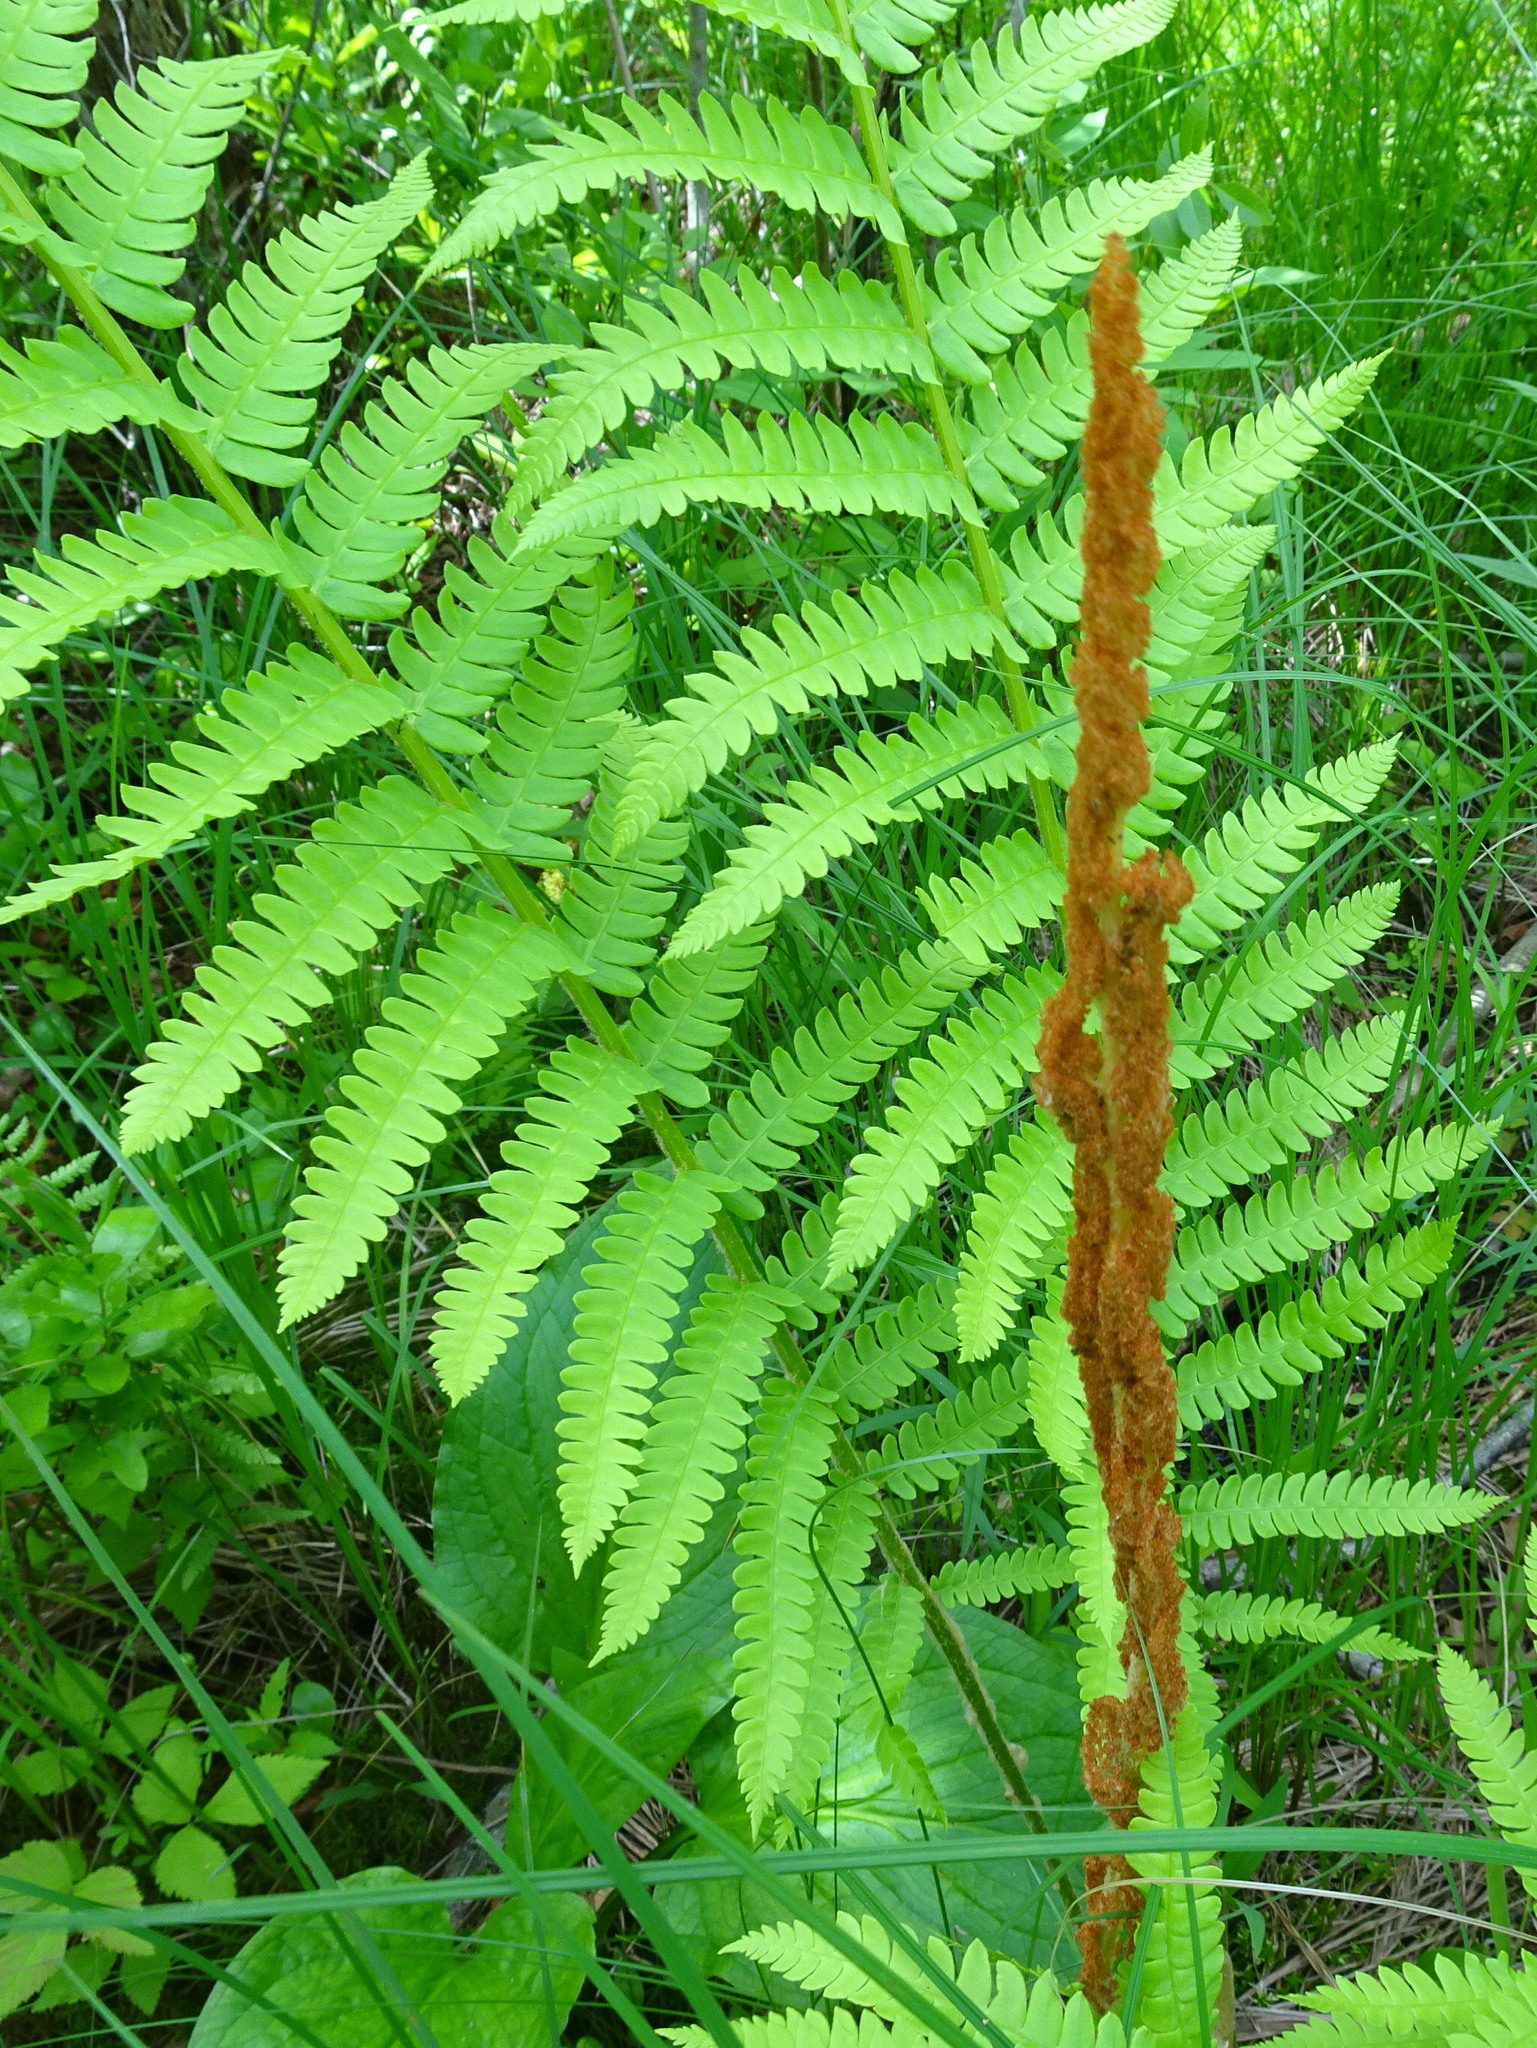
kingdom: Plantae
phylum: Tracheophyta
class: Polypodiopsida
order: Osmundales
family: Osmundaceae
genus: Osmundastrum
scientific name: Osmundastrum cinnamomeum
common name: Cinnamon fern
